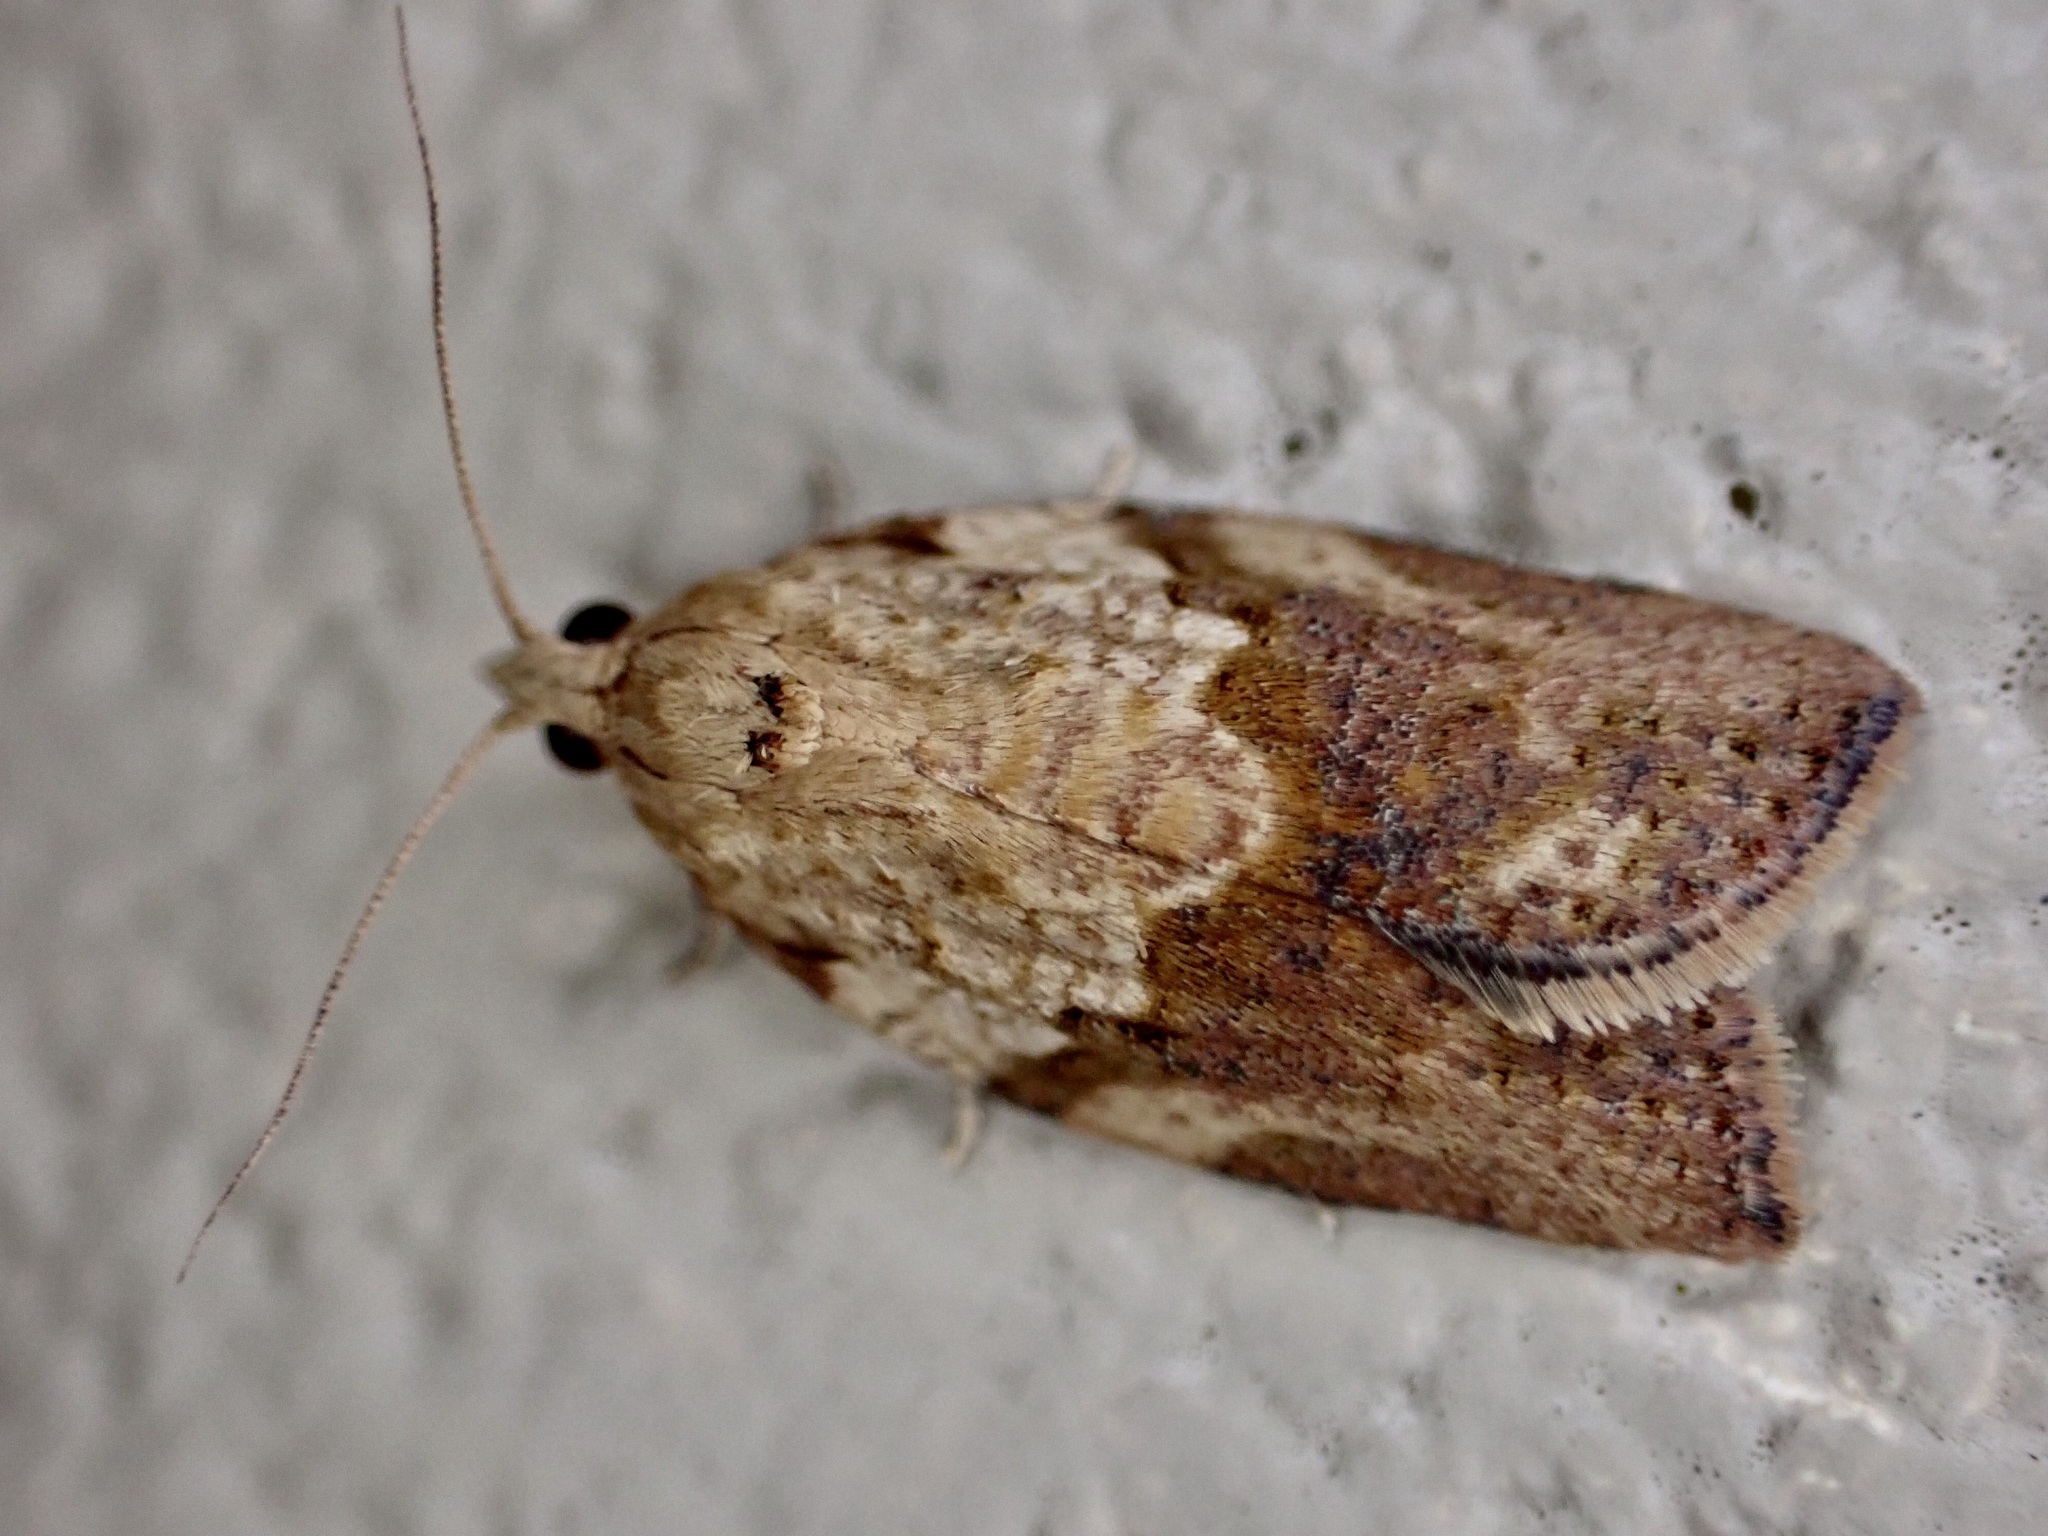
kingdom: Animalia
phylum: Arthropoda
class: Insecta
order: Lepidoptera
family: Tortricidae
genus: Epiphyas
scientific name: Epiphyas postvittana
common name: Light brown apple moth
